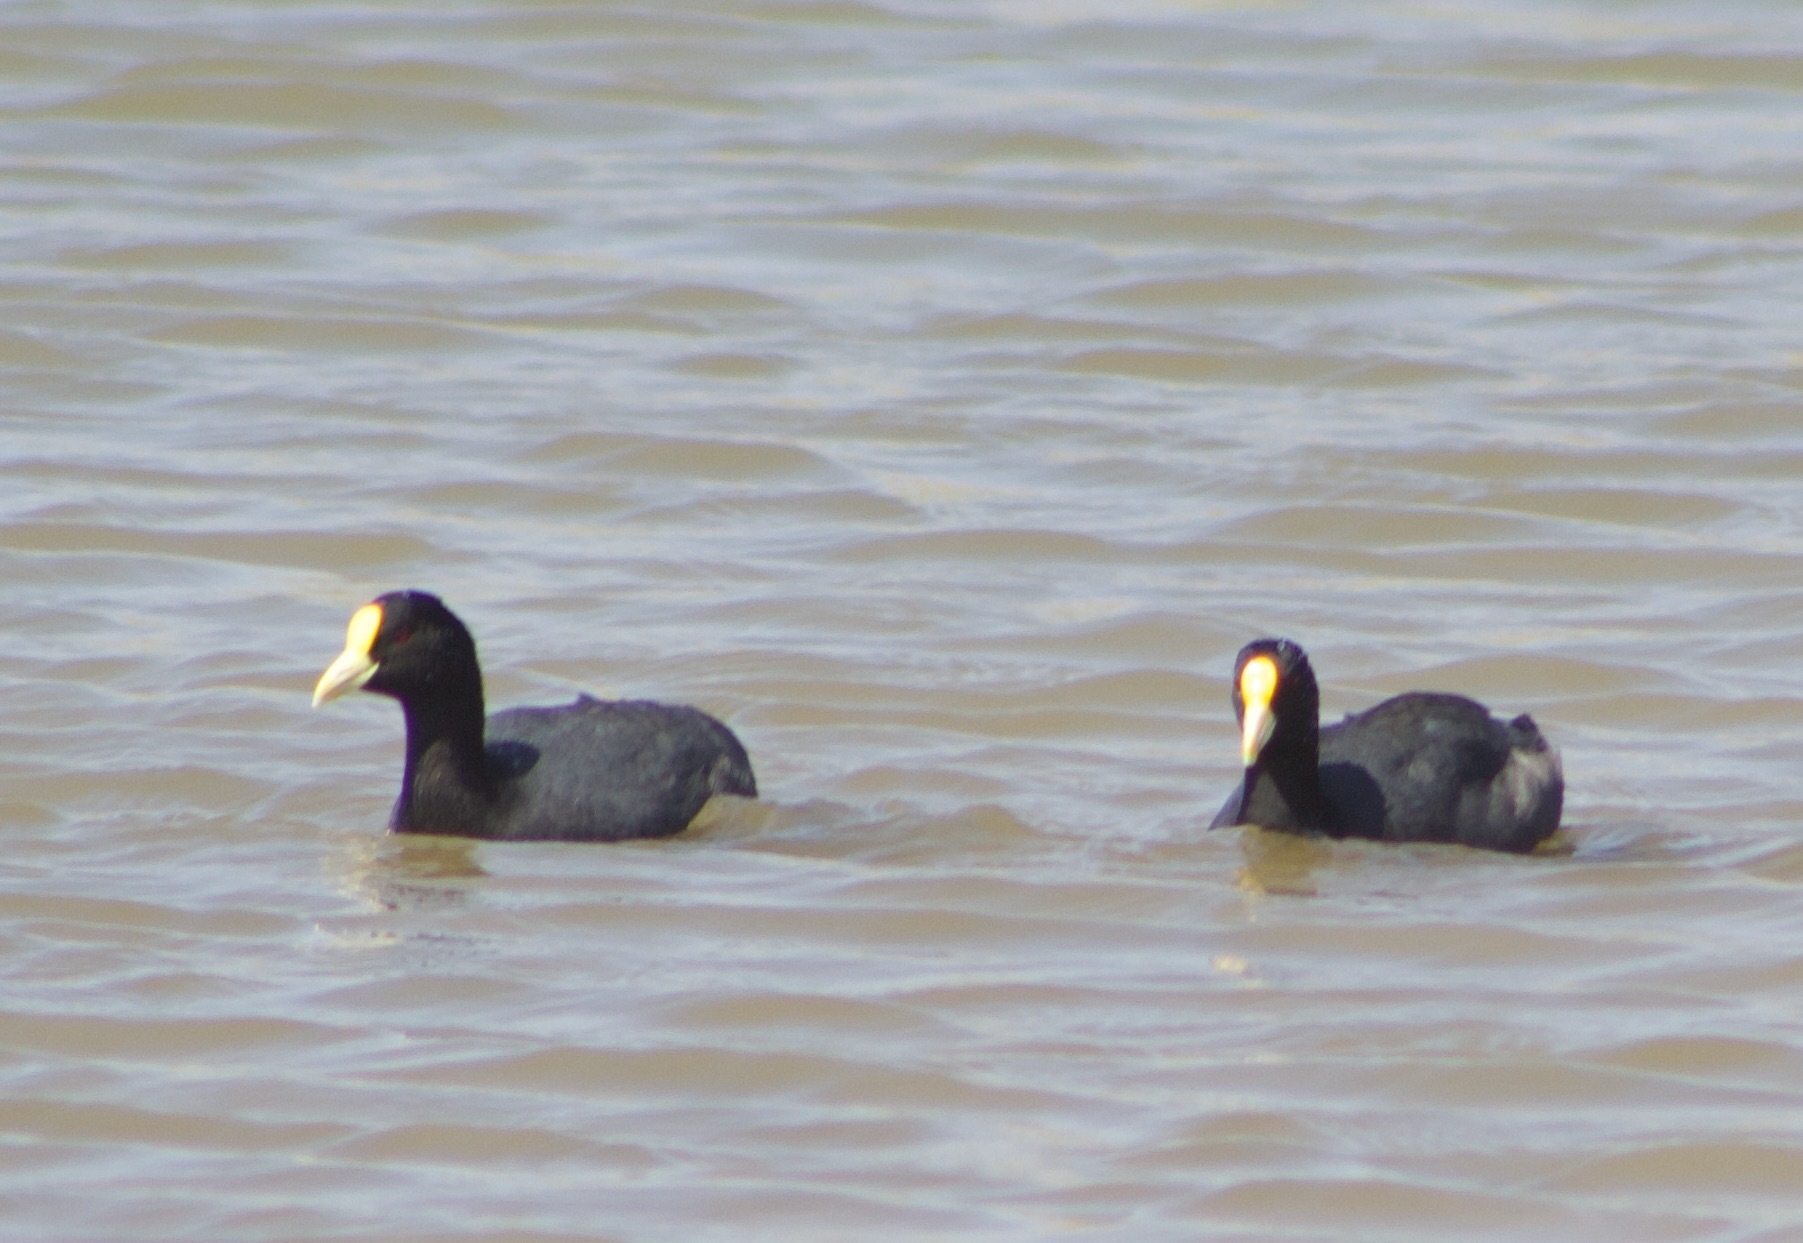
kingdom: Animalia
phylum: Chordata
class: Aves
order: Gruiformes
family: Rallidae
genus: Fulica
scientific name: Fulica leucoptera
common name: White-winged coot
